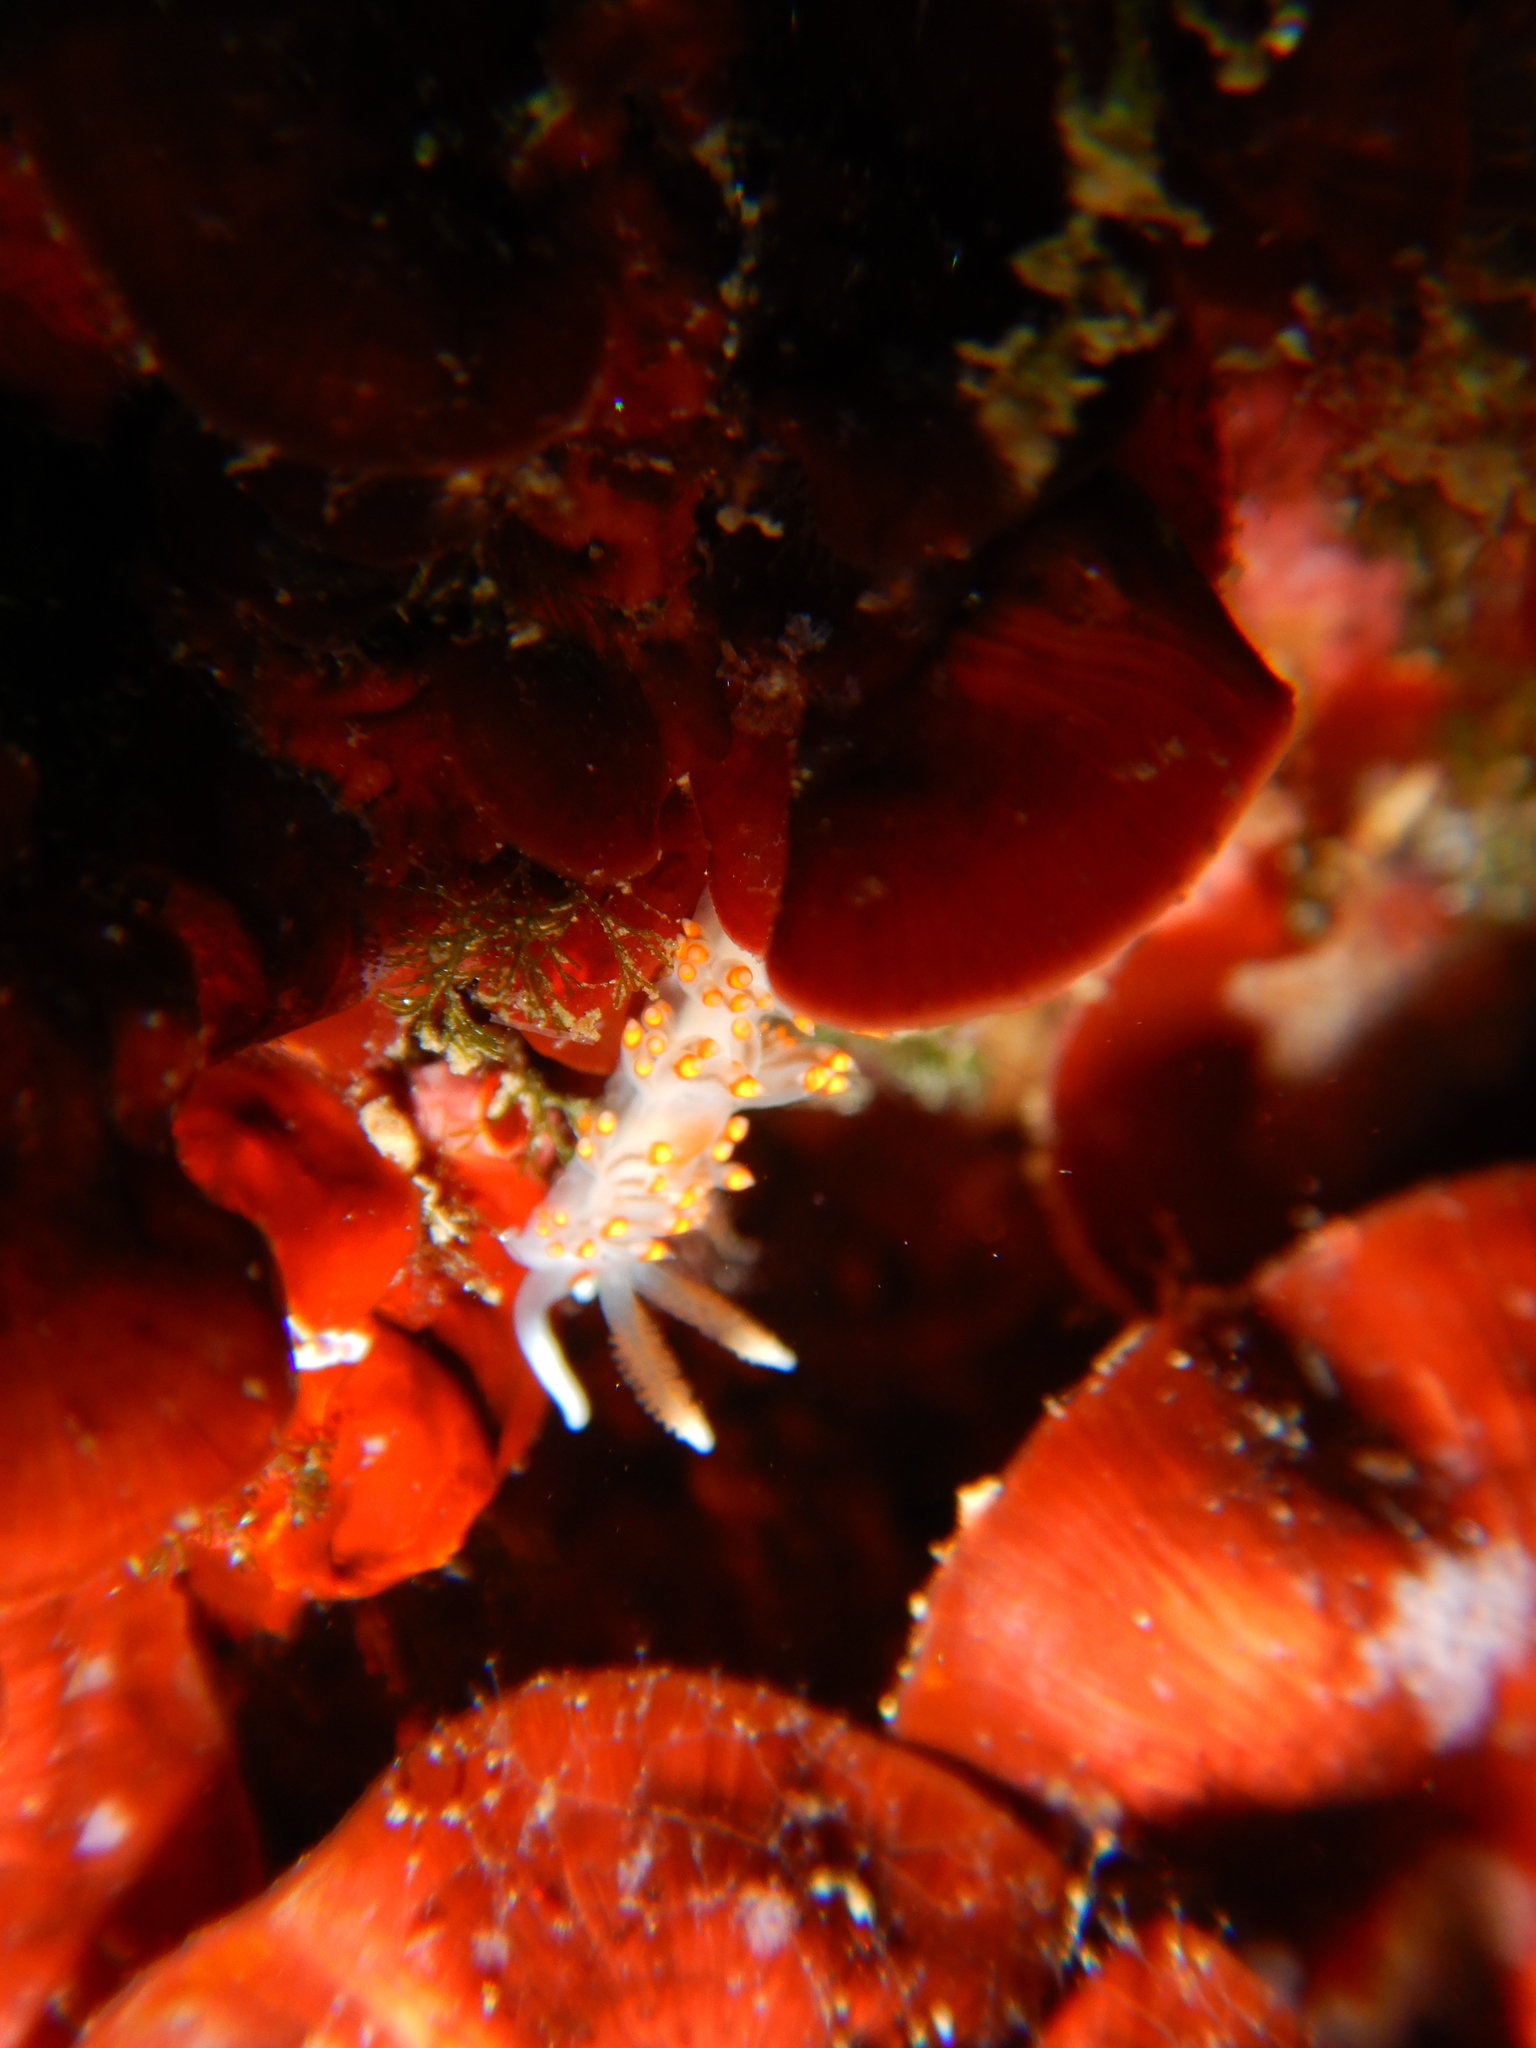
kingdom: Animalia
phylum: Mollusca
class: Gastropoda
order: Nudibranchia
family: Aeolidiidae
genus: Berghia
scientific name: Berghia verrucicornis
